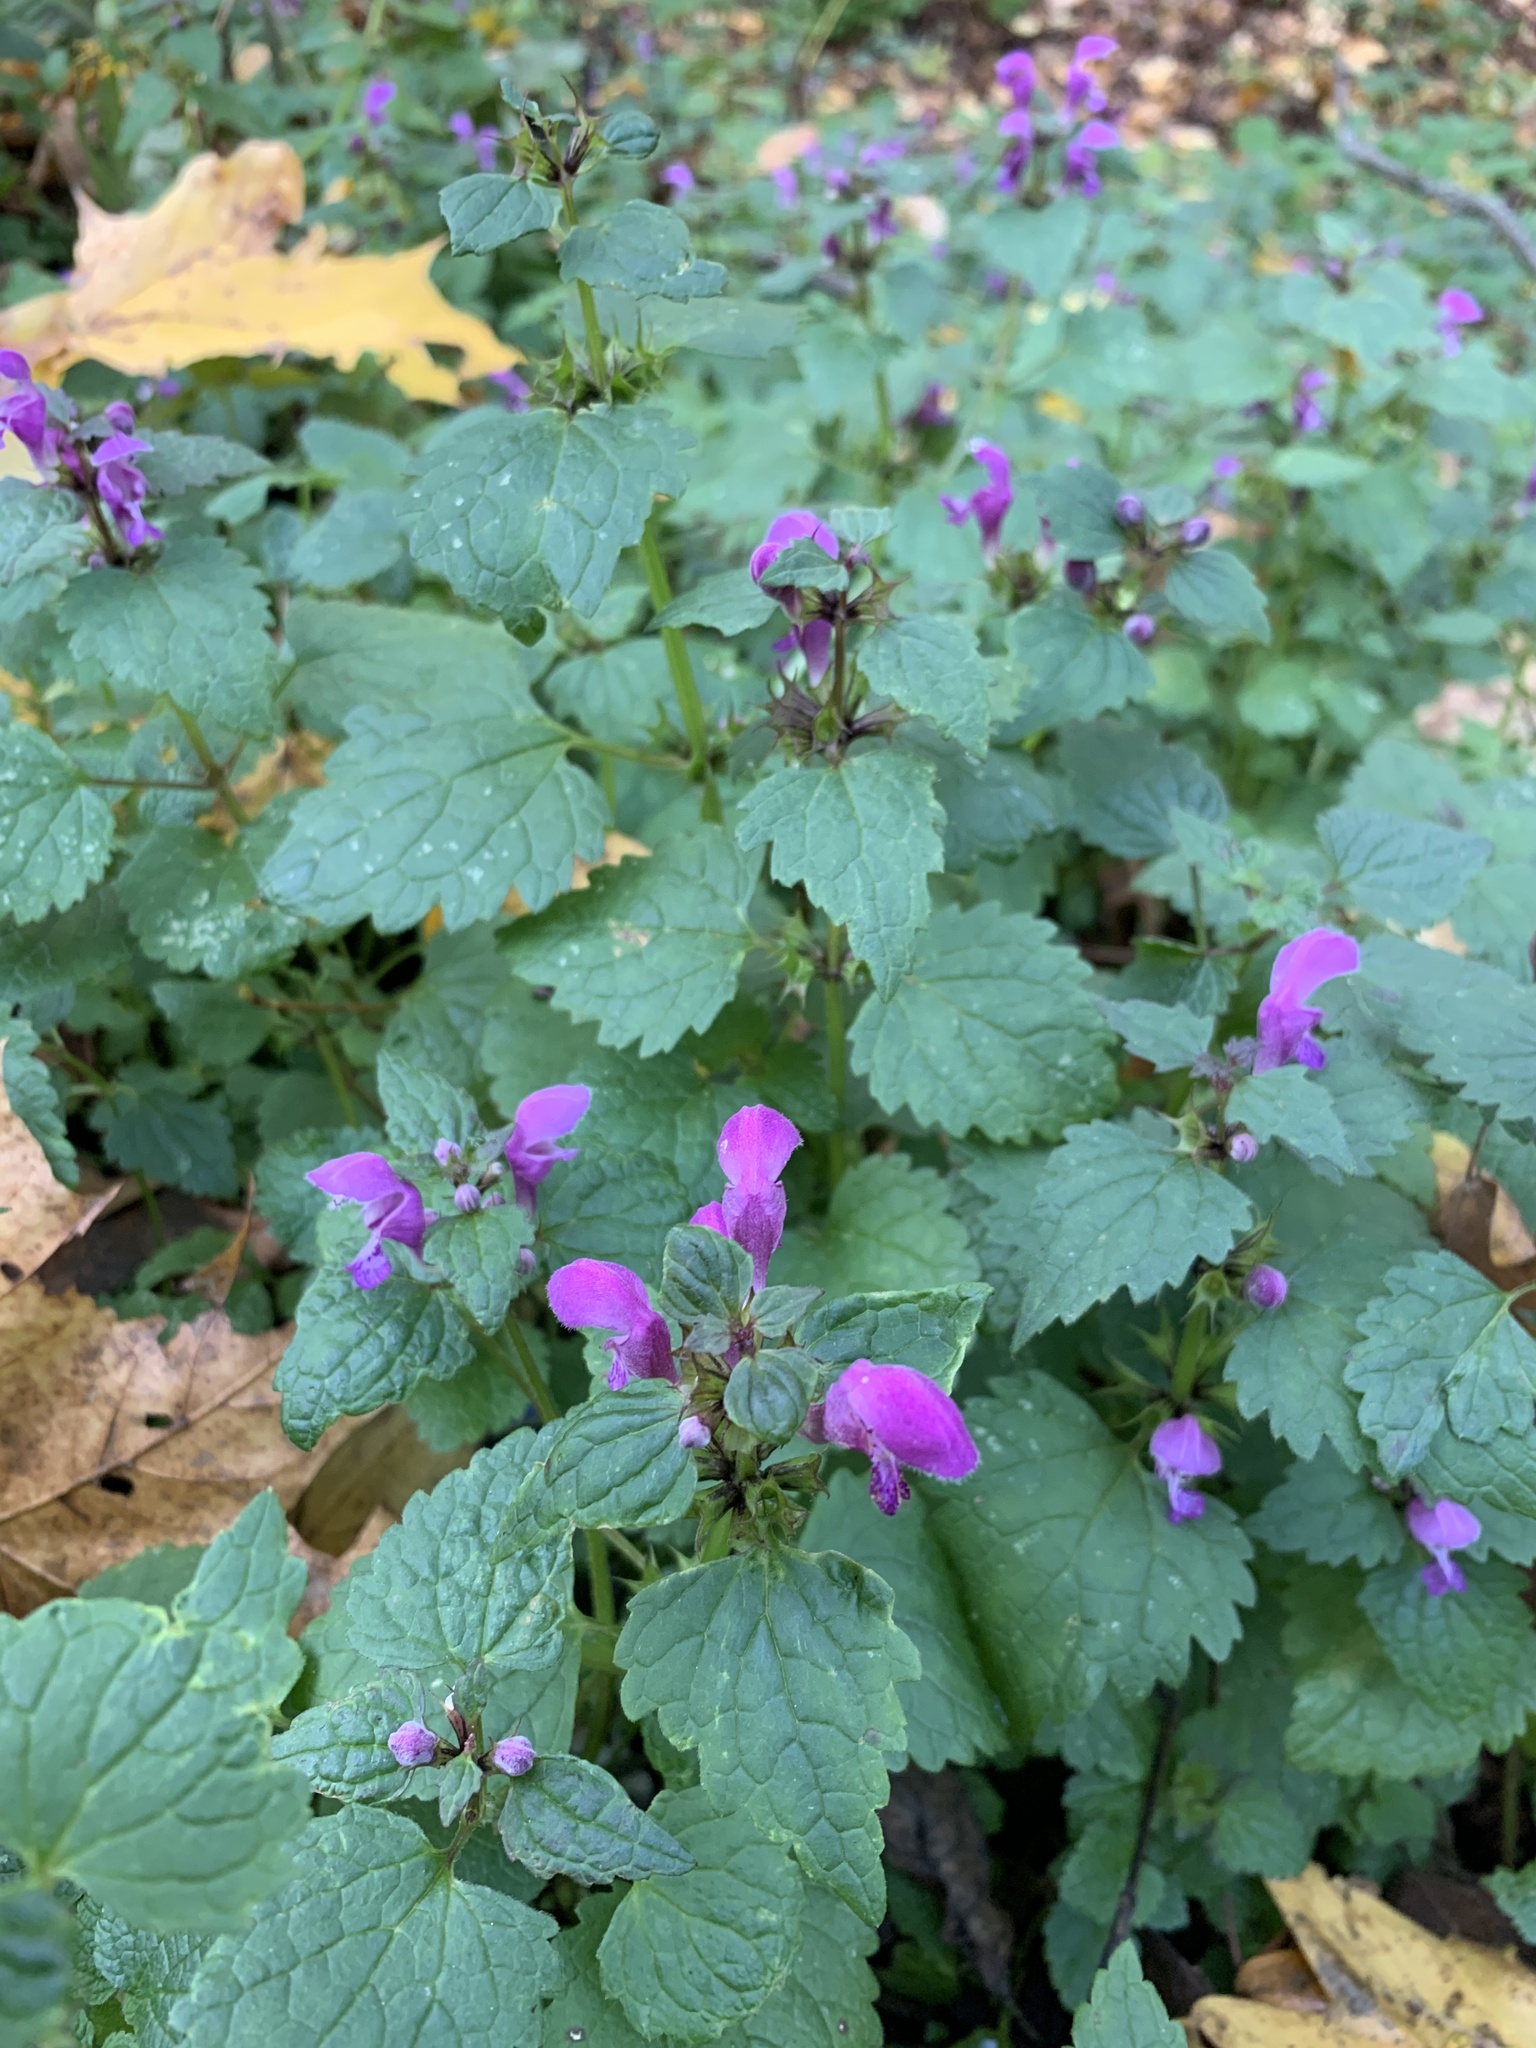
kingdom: Plantae
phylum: Tracheophyta
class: Magnoliopsida
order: Lamiales
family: Lamiaceae
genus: Lamium
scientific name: Lamium maculatum
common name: Spotted dead-nettle
